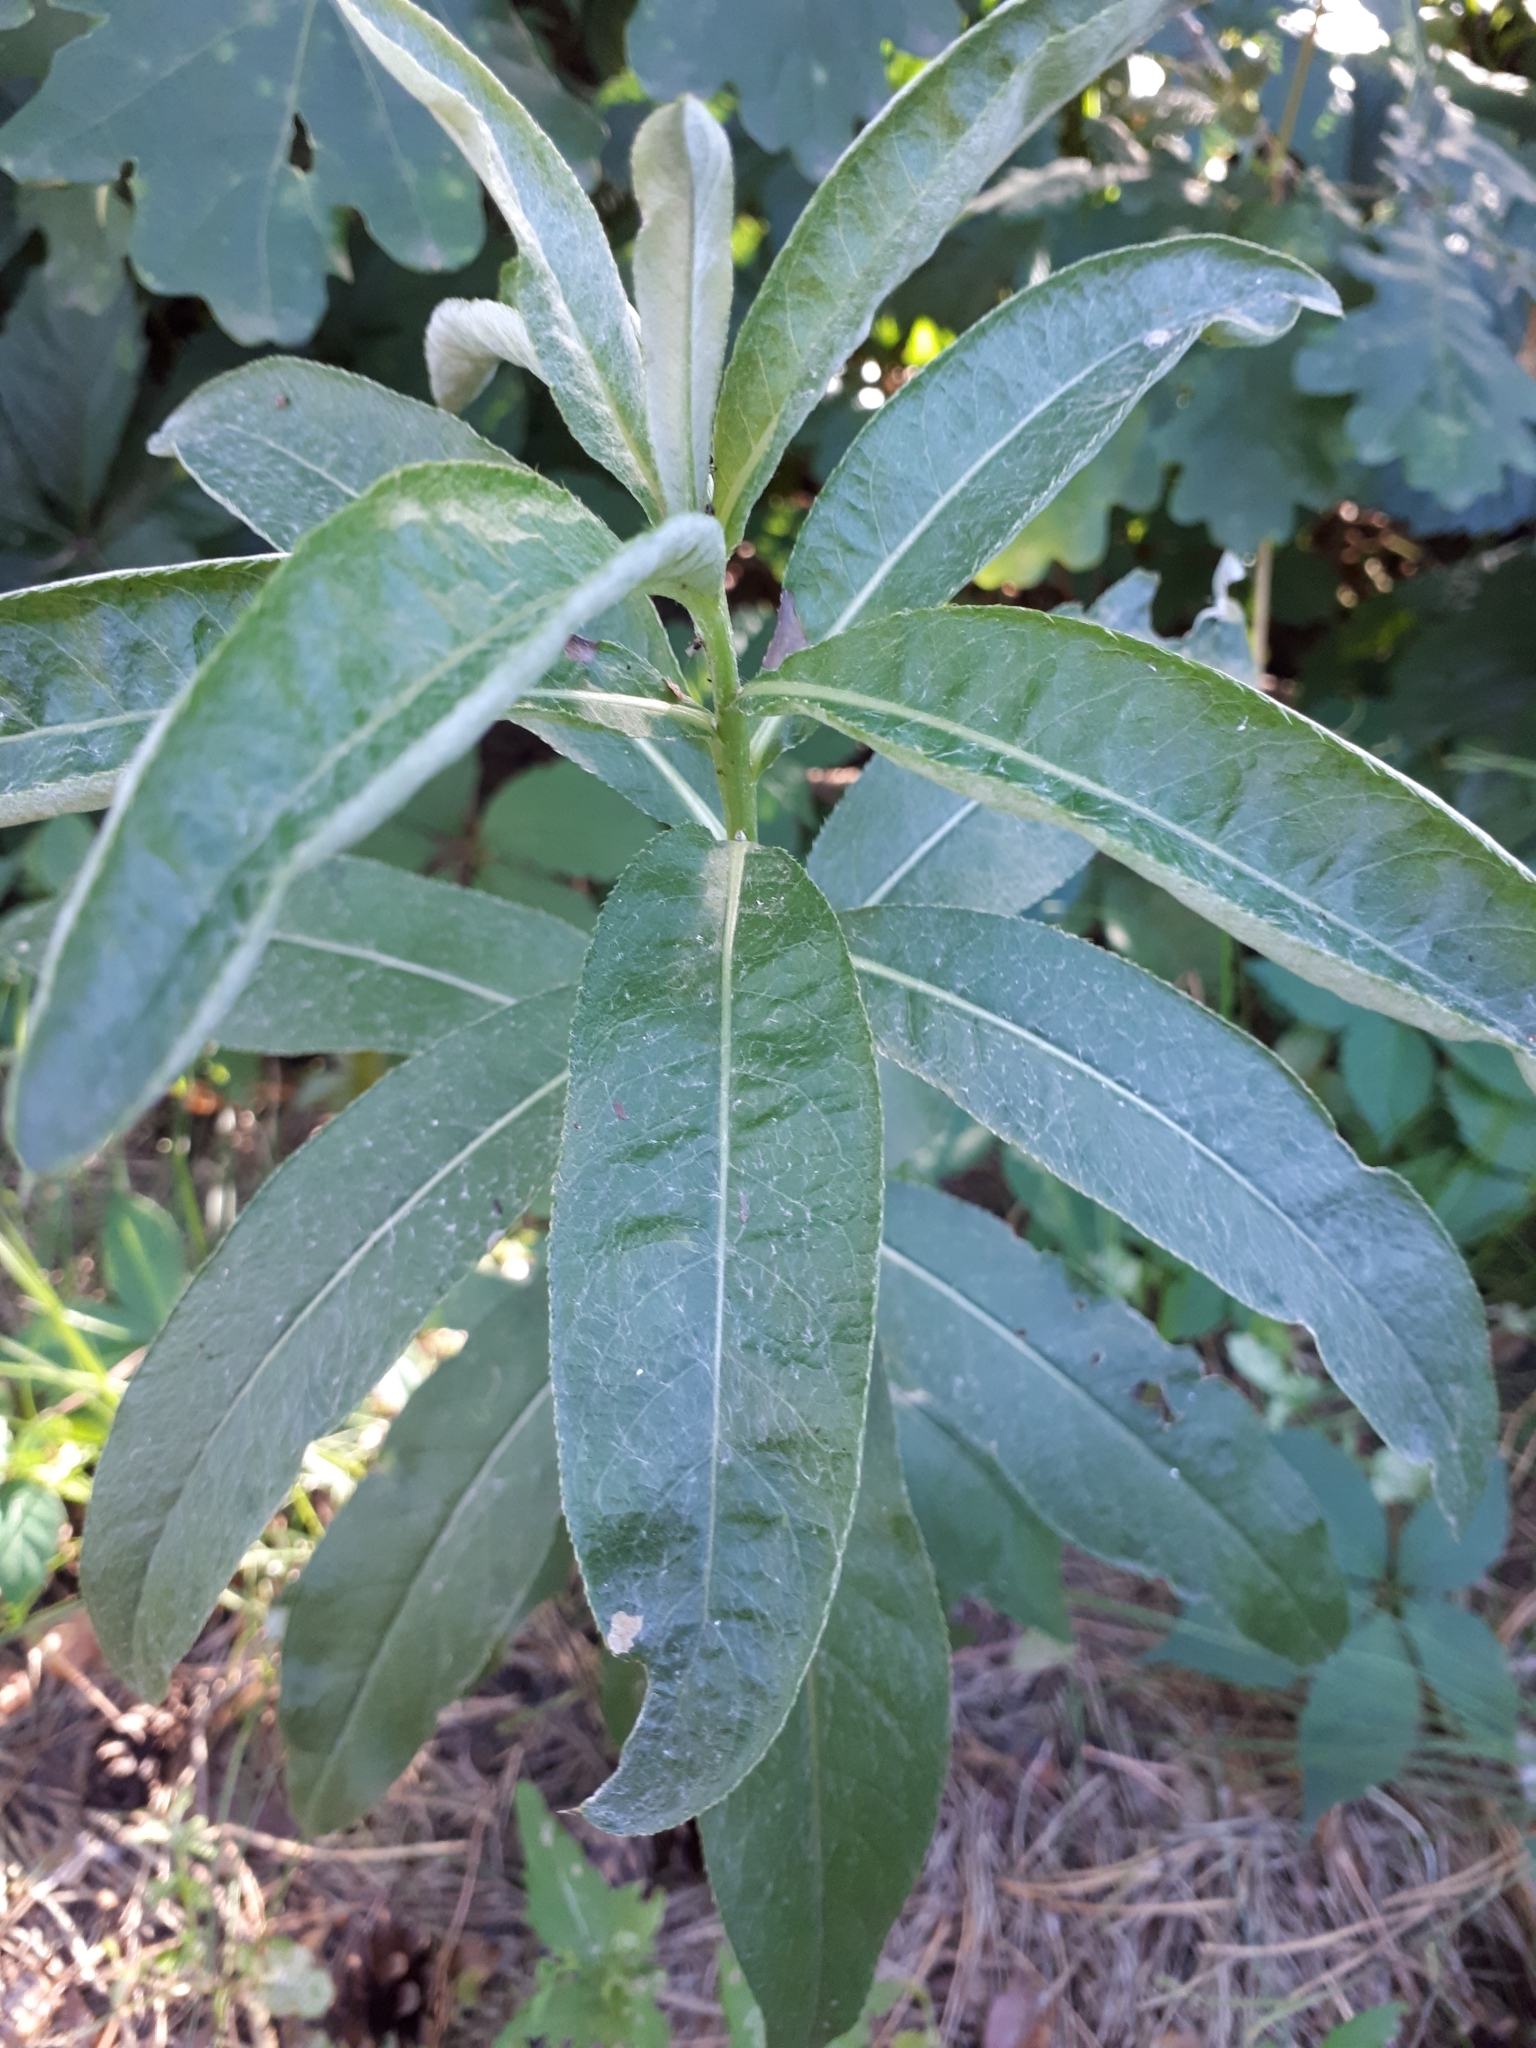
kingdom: Plantae
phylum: Tracheophyta
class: Magnoliopsida
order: Asterales
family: Asteraceae
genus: Cirsium
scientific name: Cirsium arvense
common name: Creeping thistle
